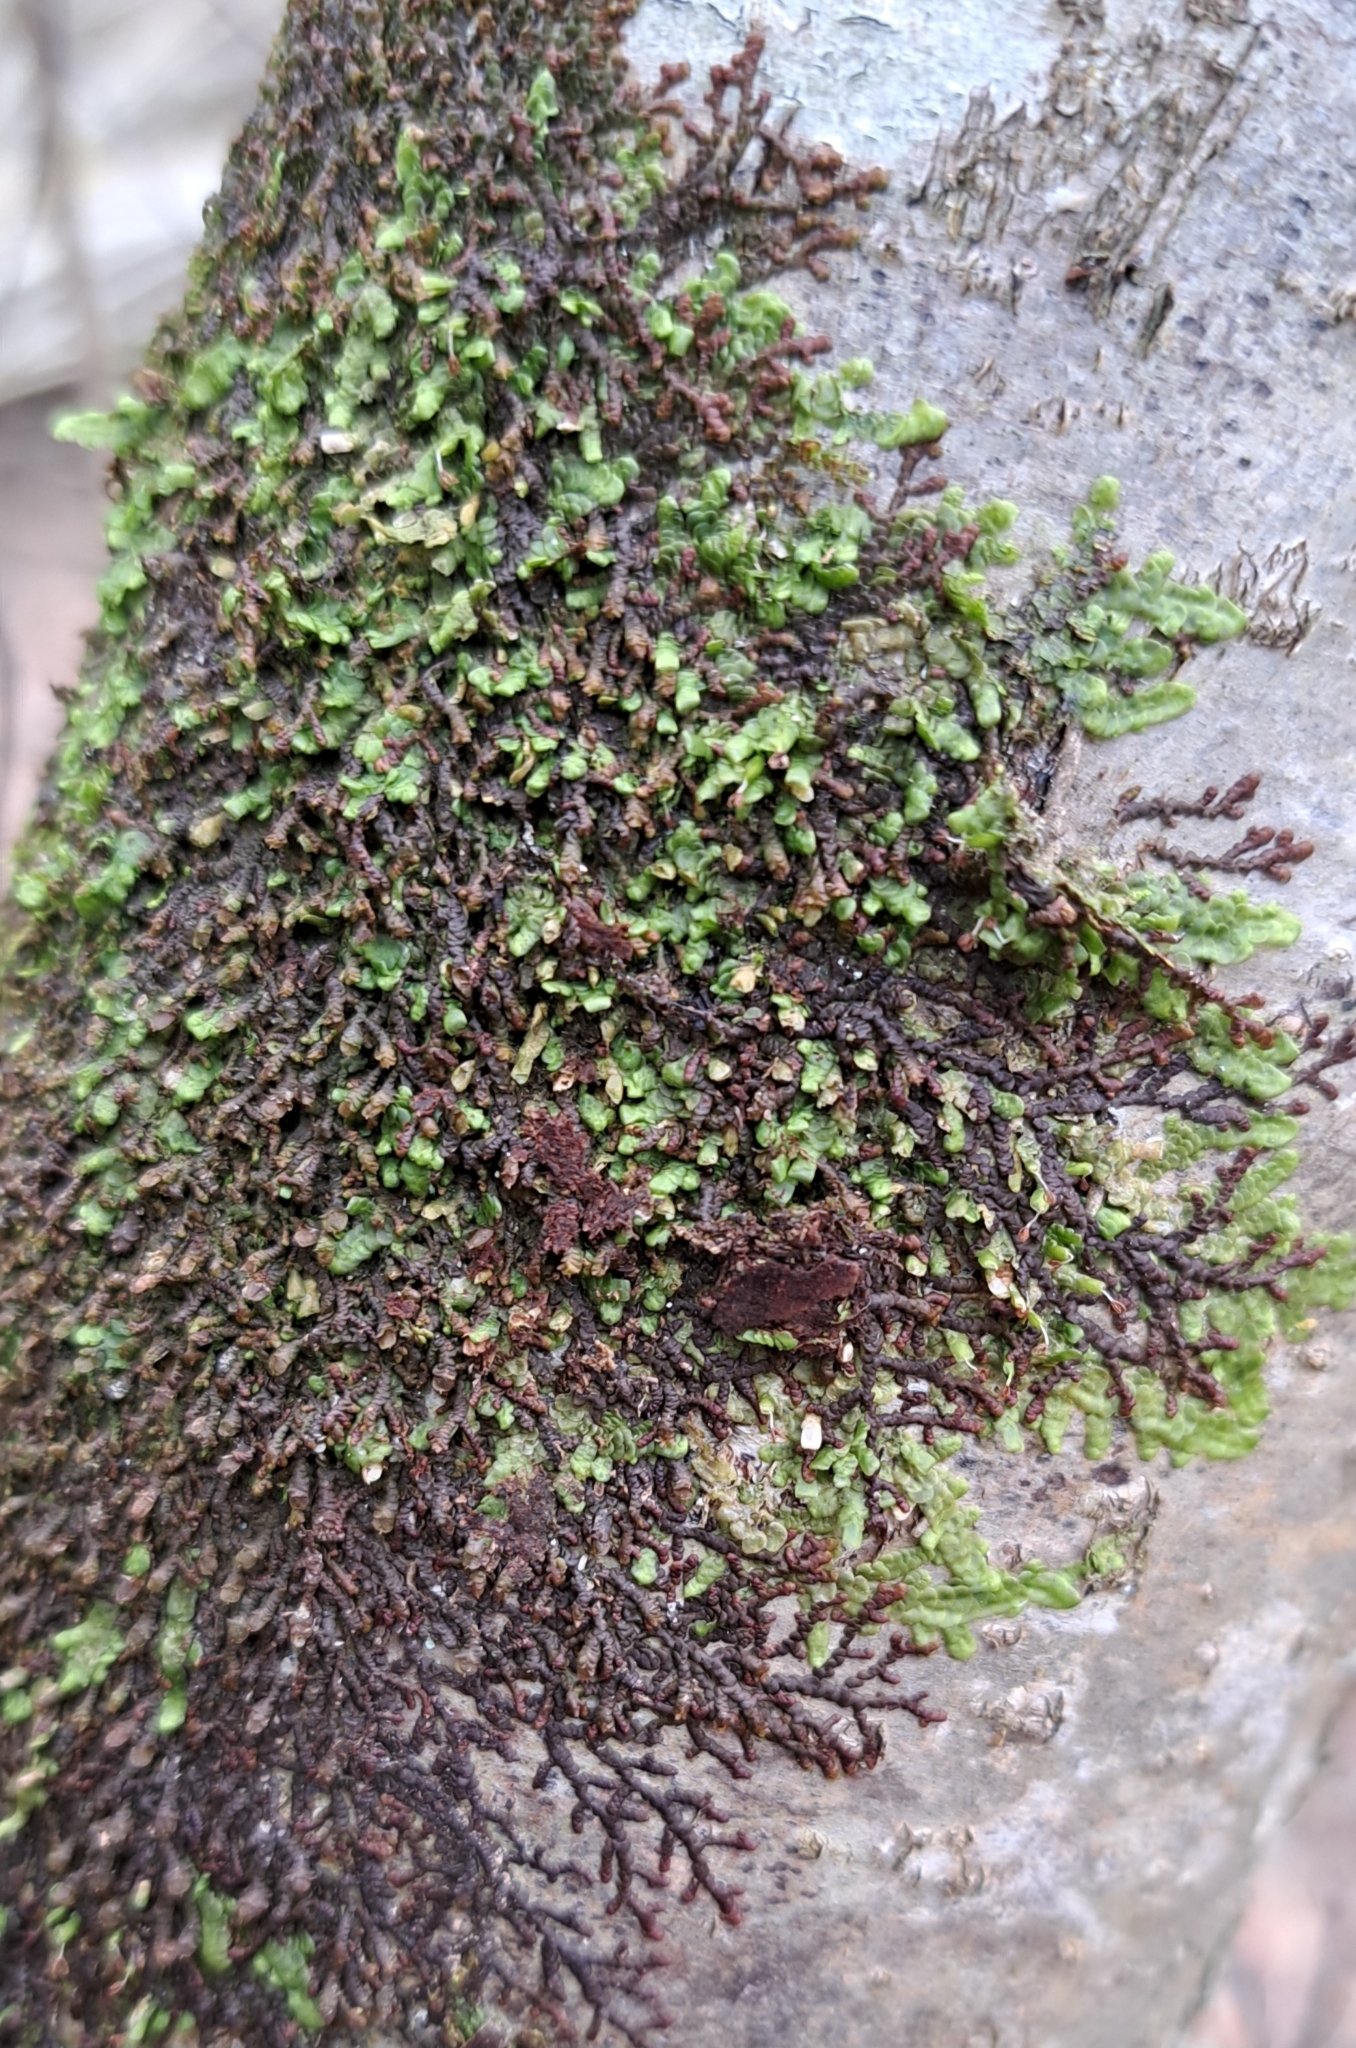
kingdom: Plantae
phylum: Marchantiophyta
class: Jungermanniopsida
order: Porellales
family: Frullaniaceae
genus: Frullania
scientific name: Frullania dilatata
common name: Dilated scalewort
